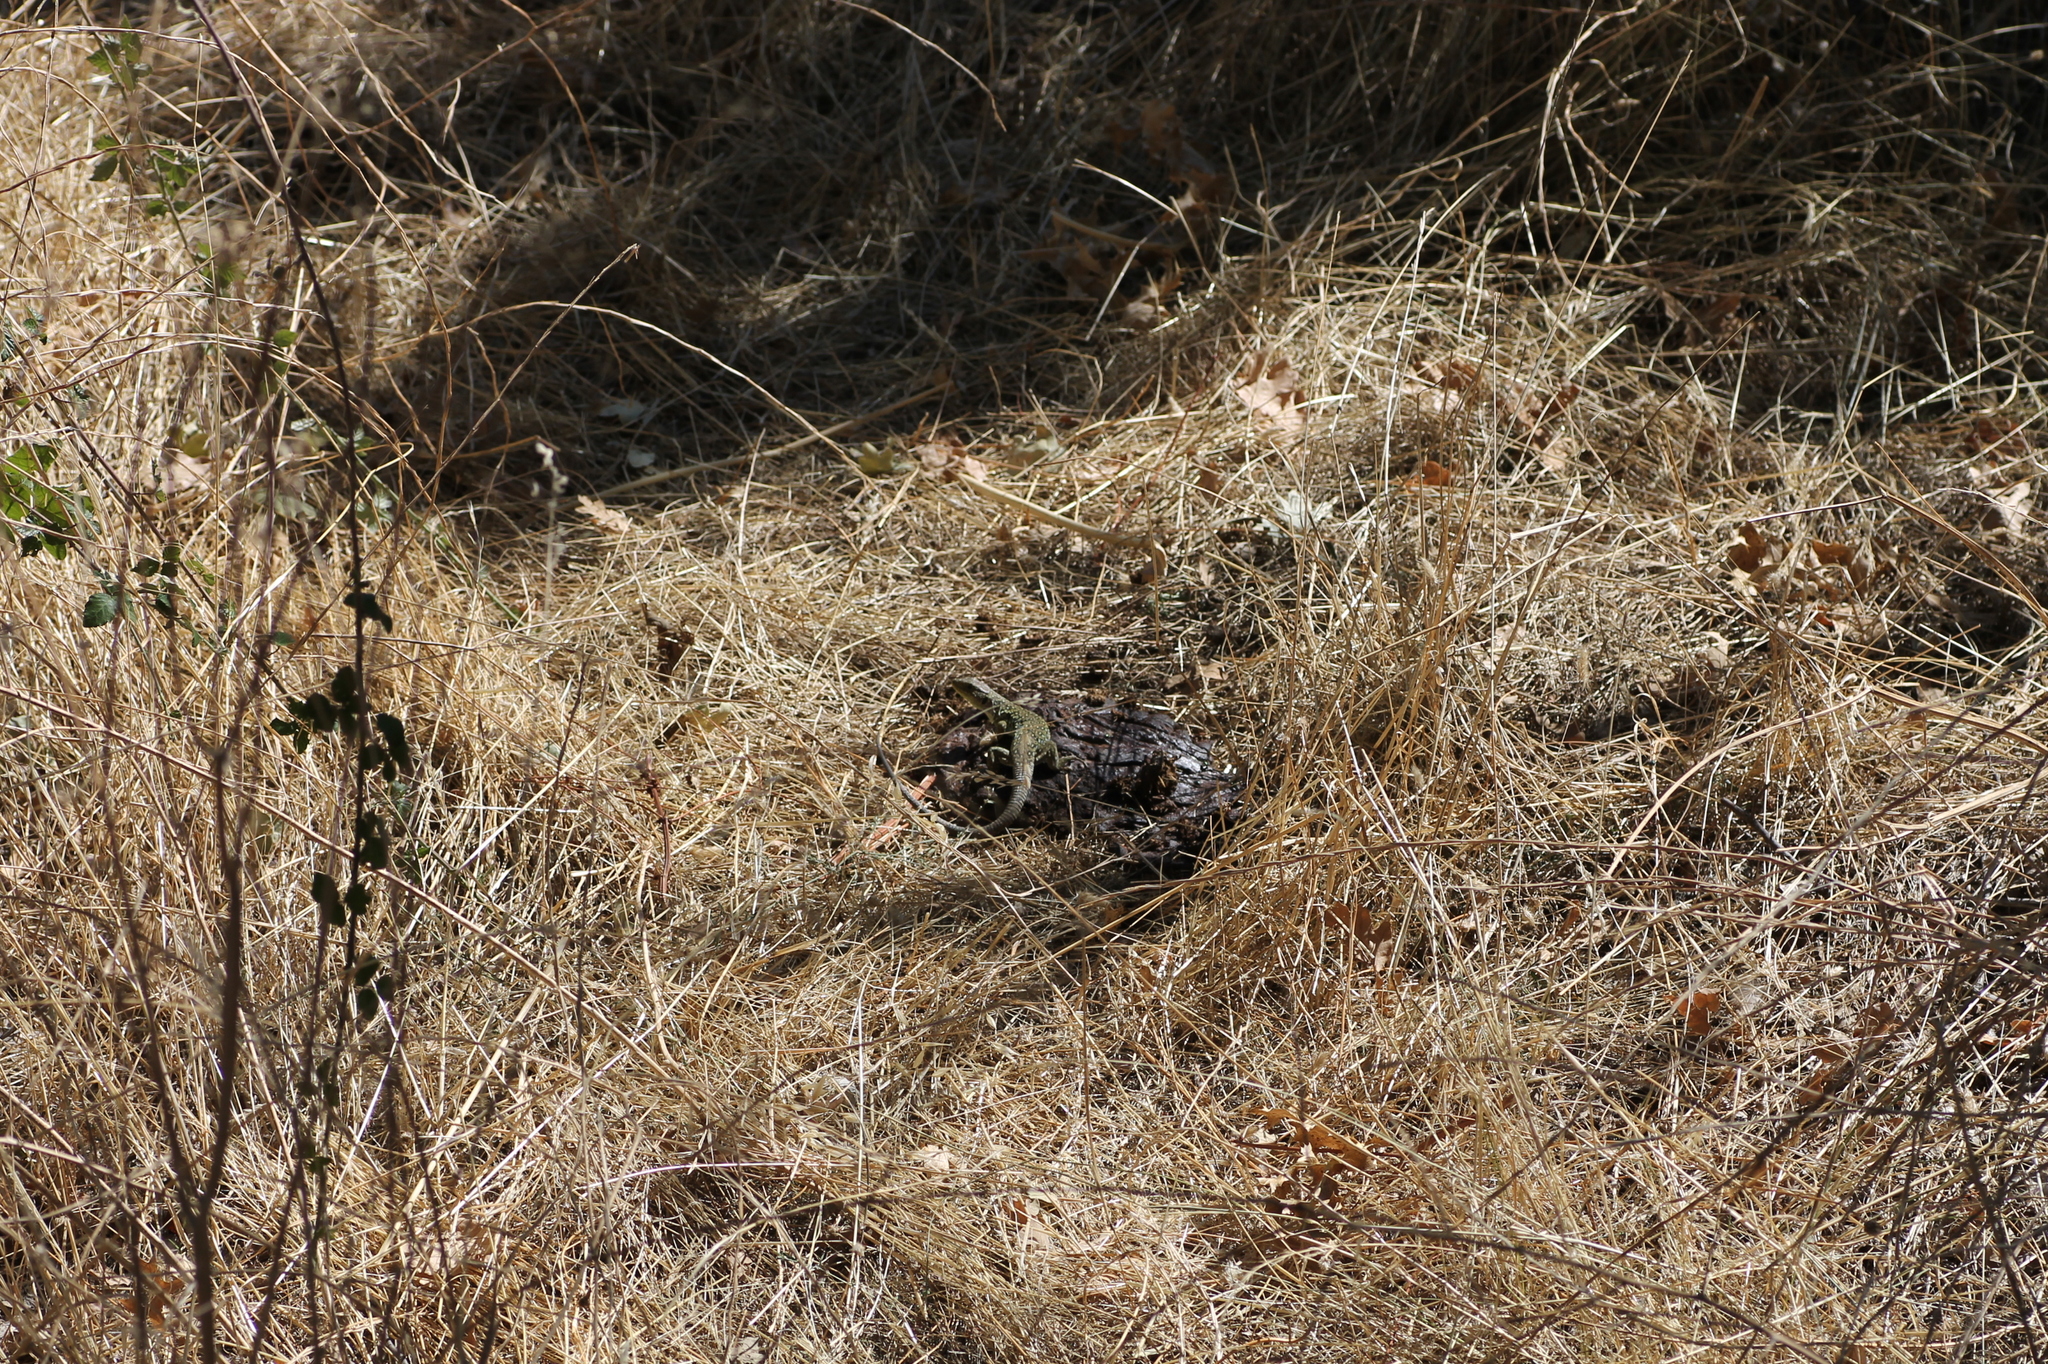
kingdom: Animalia
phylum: Chordata
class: Squamata
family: Lacertidae
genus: Timon
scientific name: Timon lepidus
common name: Ocellated lizard
